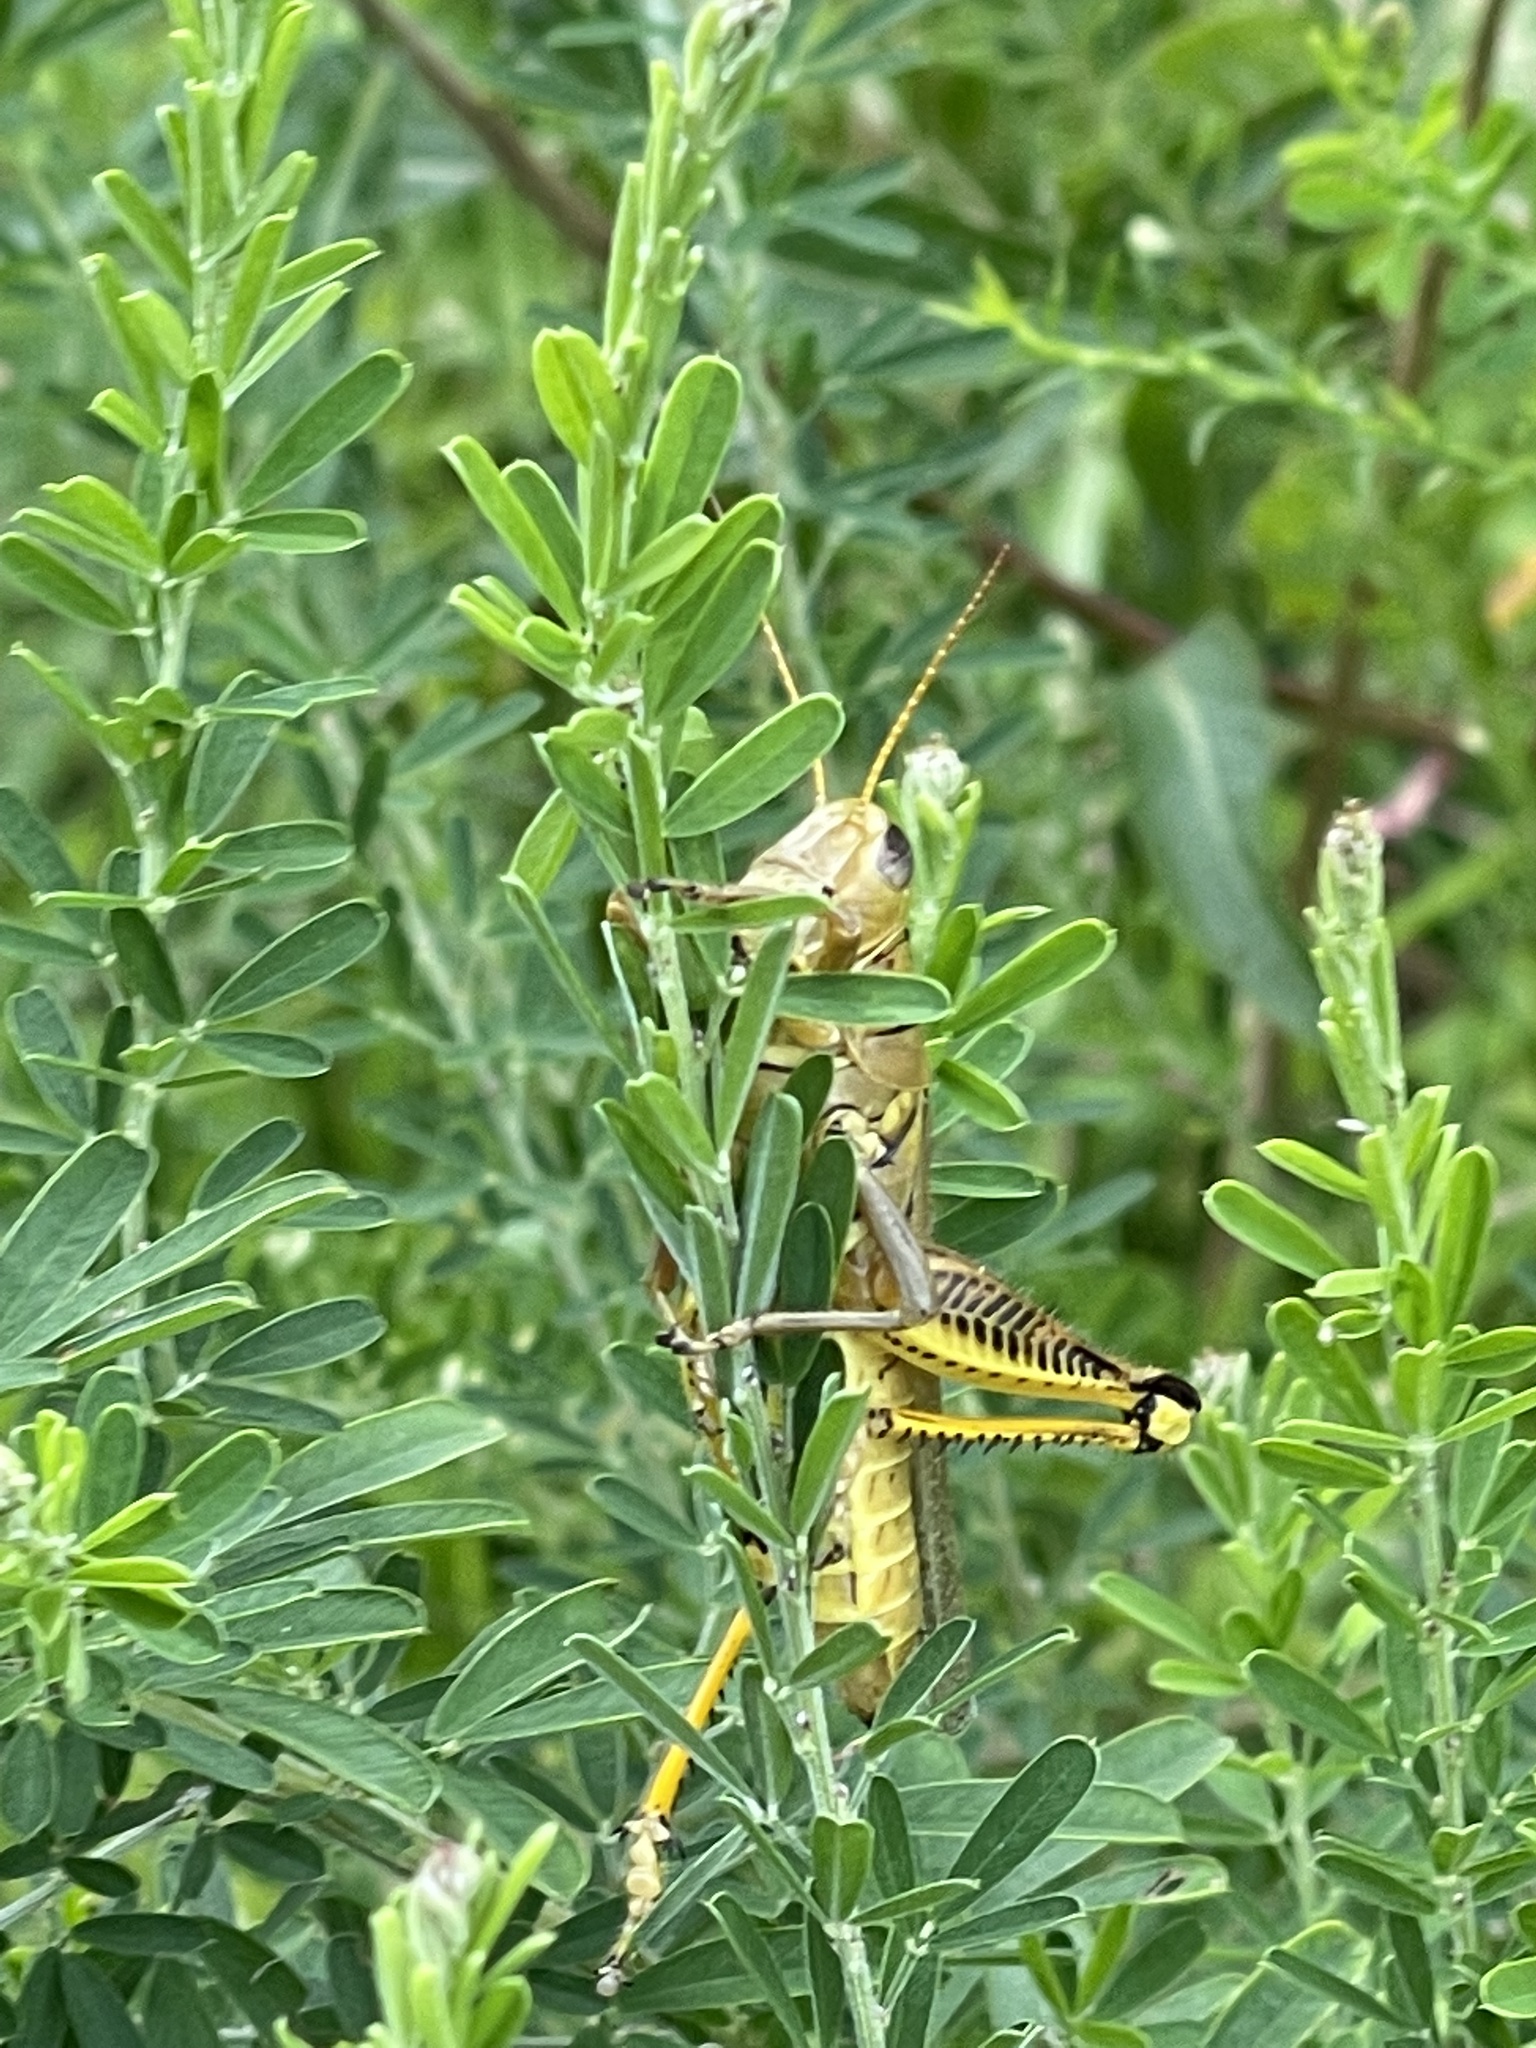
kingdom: Animalia
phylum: Arthropoda
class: Insecta
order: Orthoptera
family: Acrididae
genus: Melanoplus
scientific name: Melanoplus differentialis
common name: Differential grasshopper
